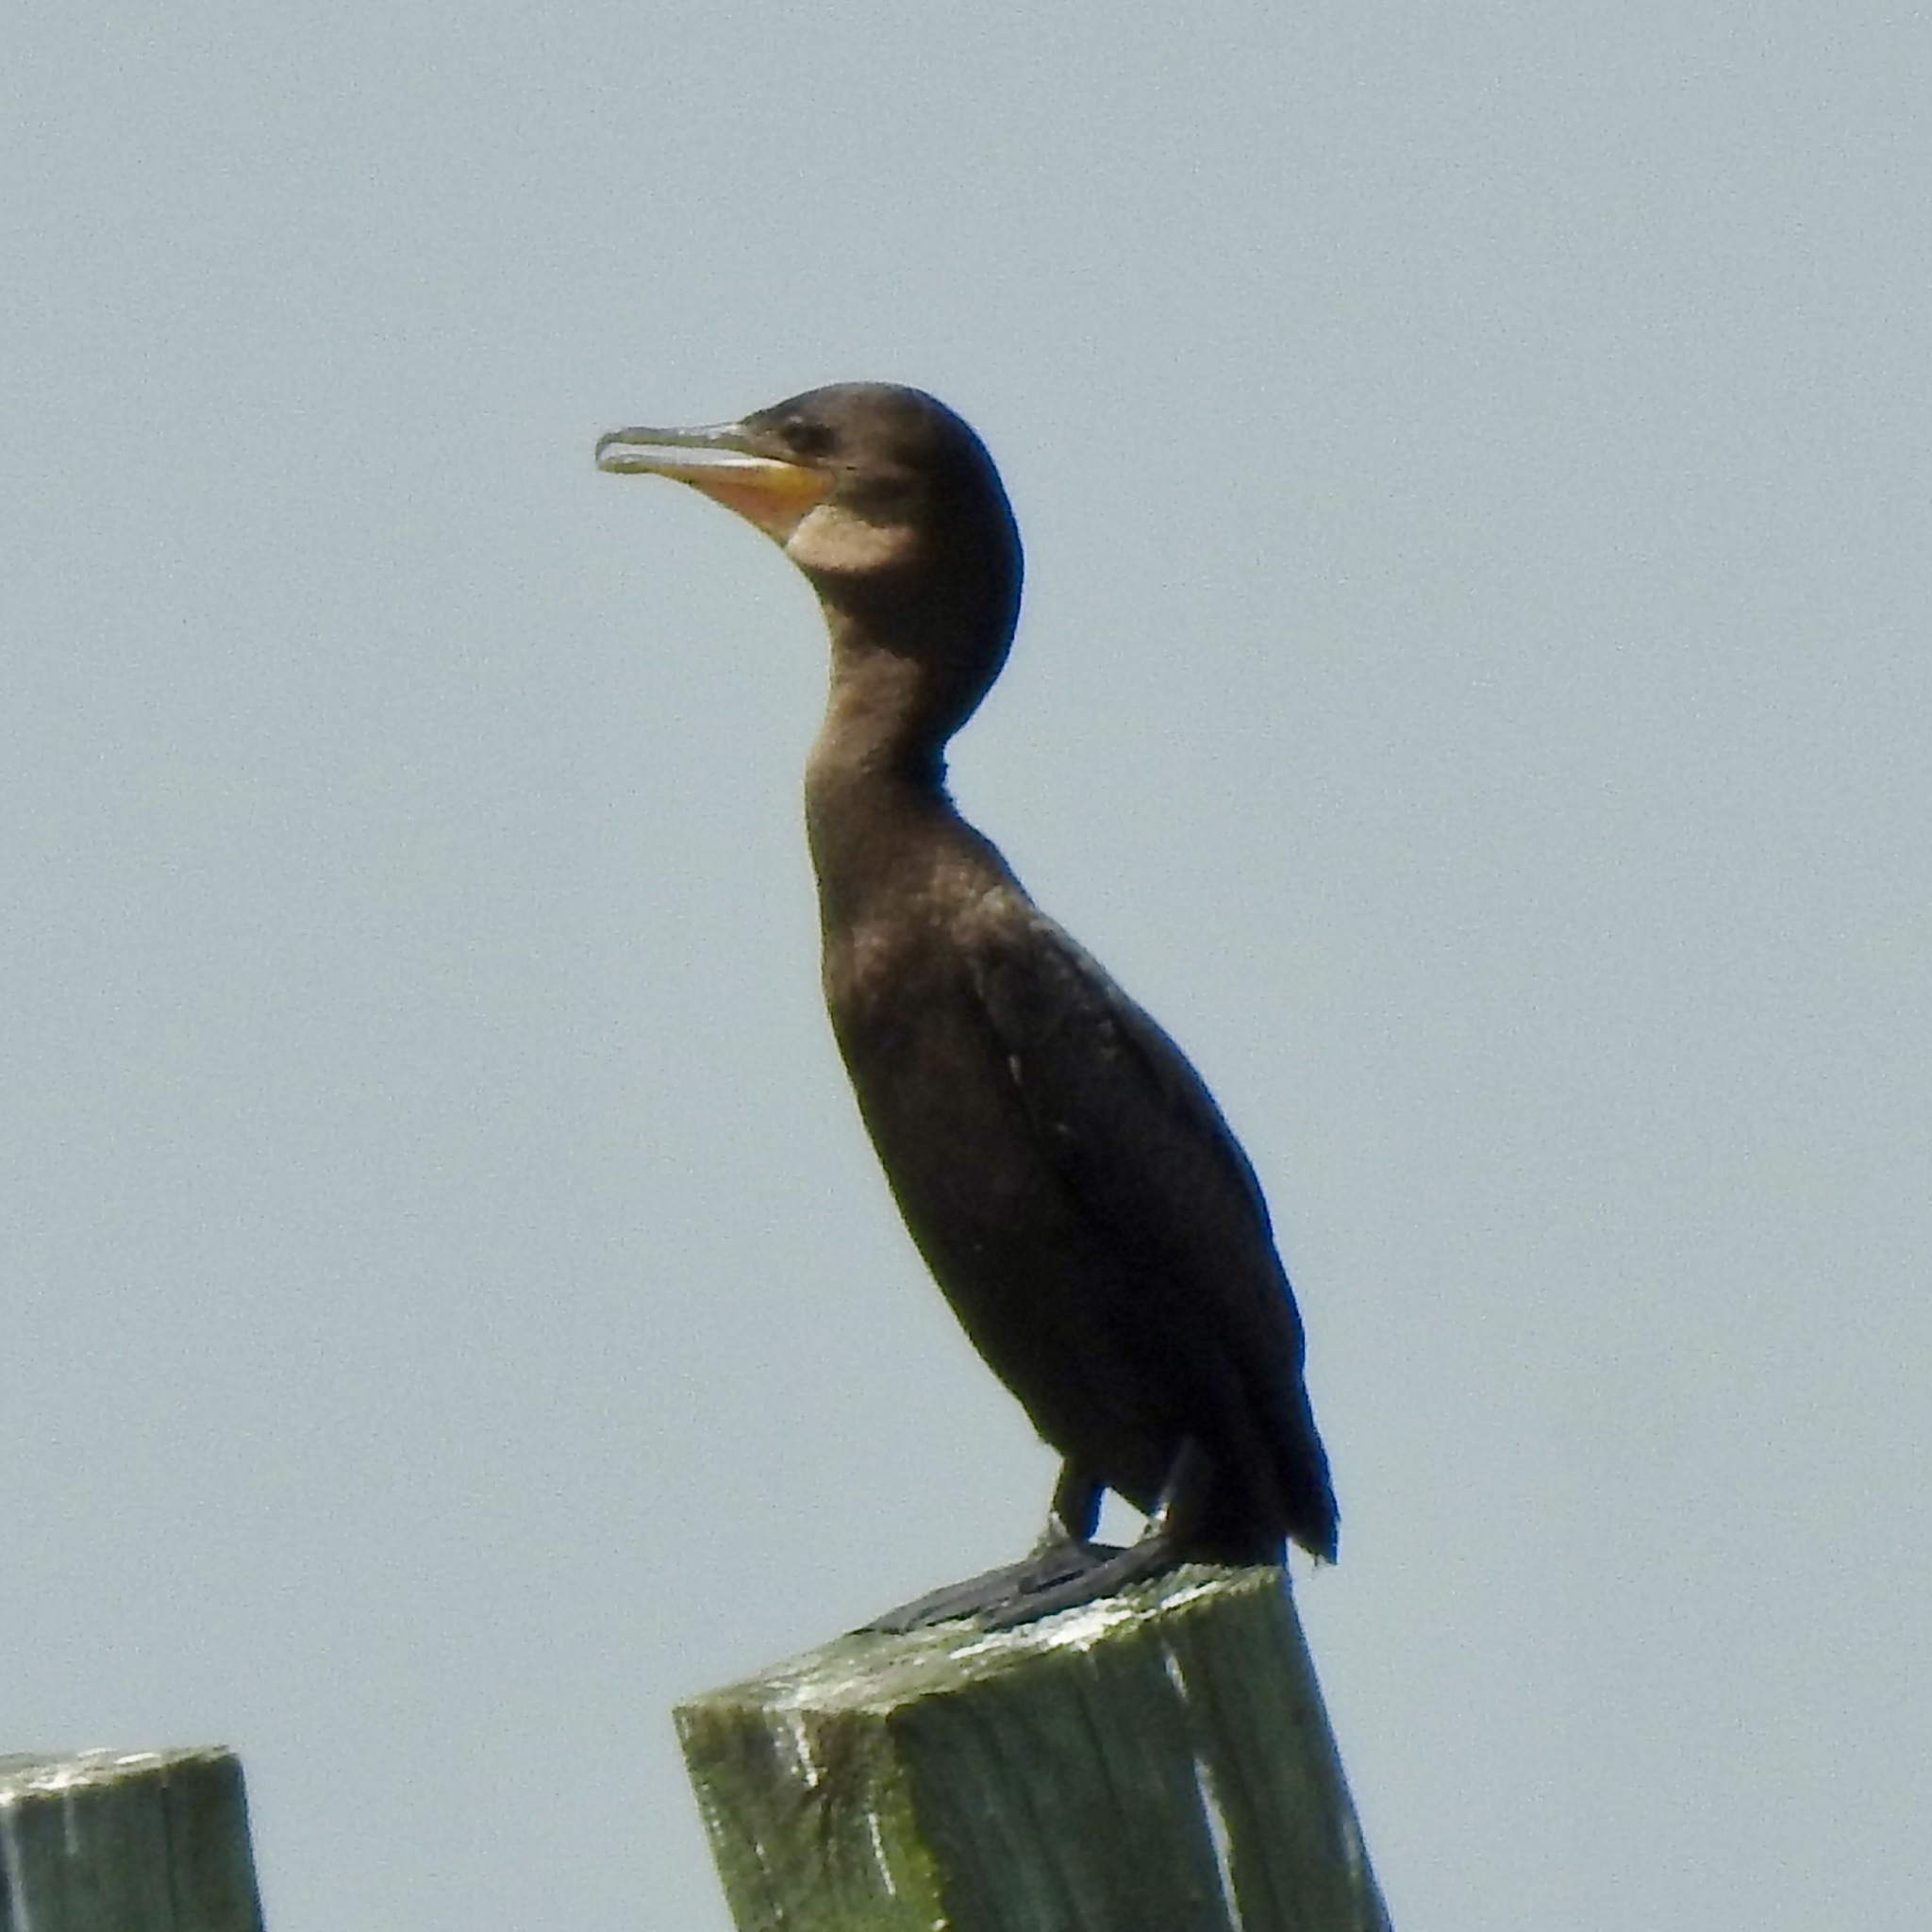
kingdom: Animalia
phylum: Chordata
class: Aves
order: Suliformes
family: Phalacrocoracidae
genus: Phalacrocorax
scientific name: Phalacrocorax brasilianus
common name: Neotropic cormorant
